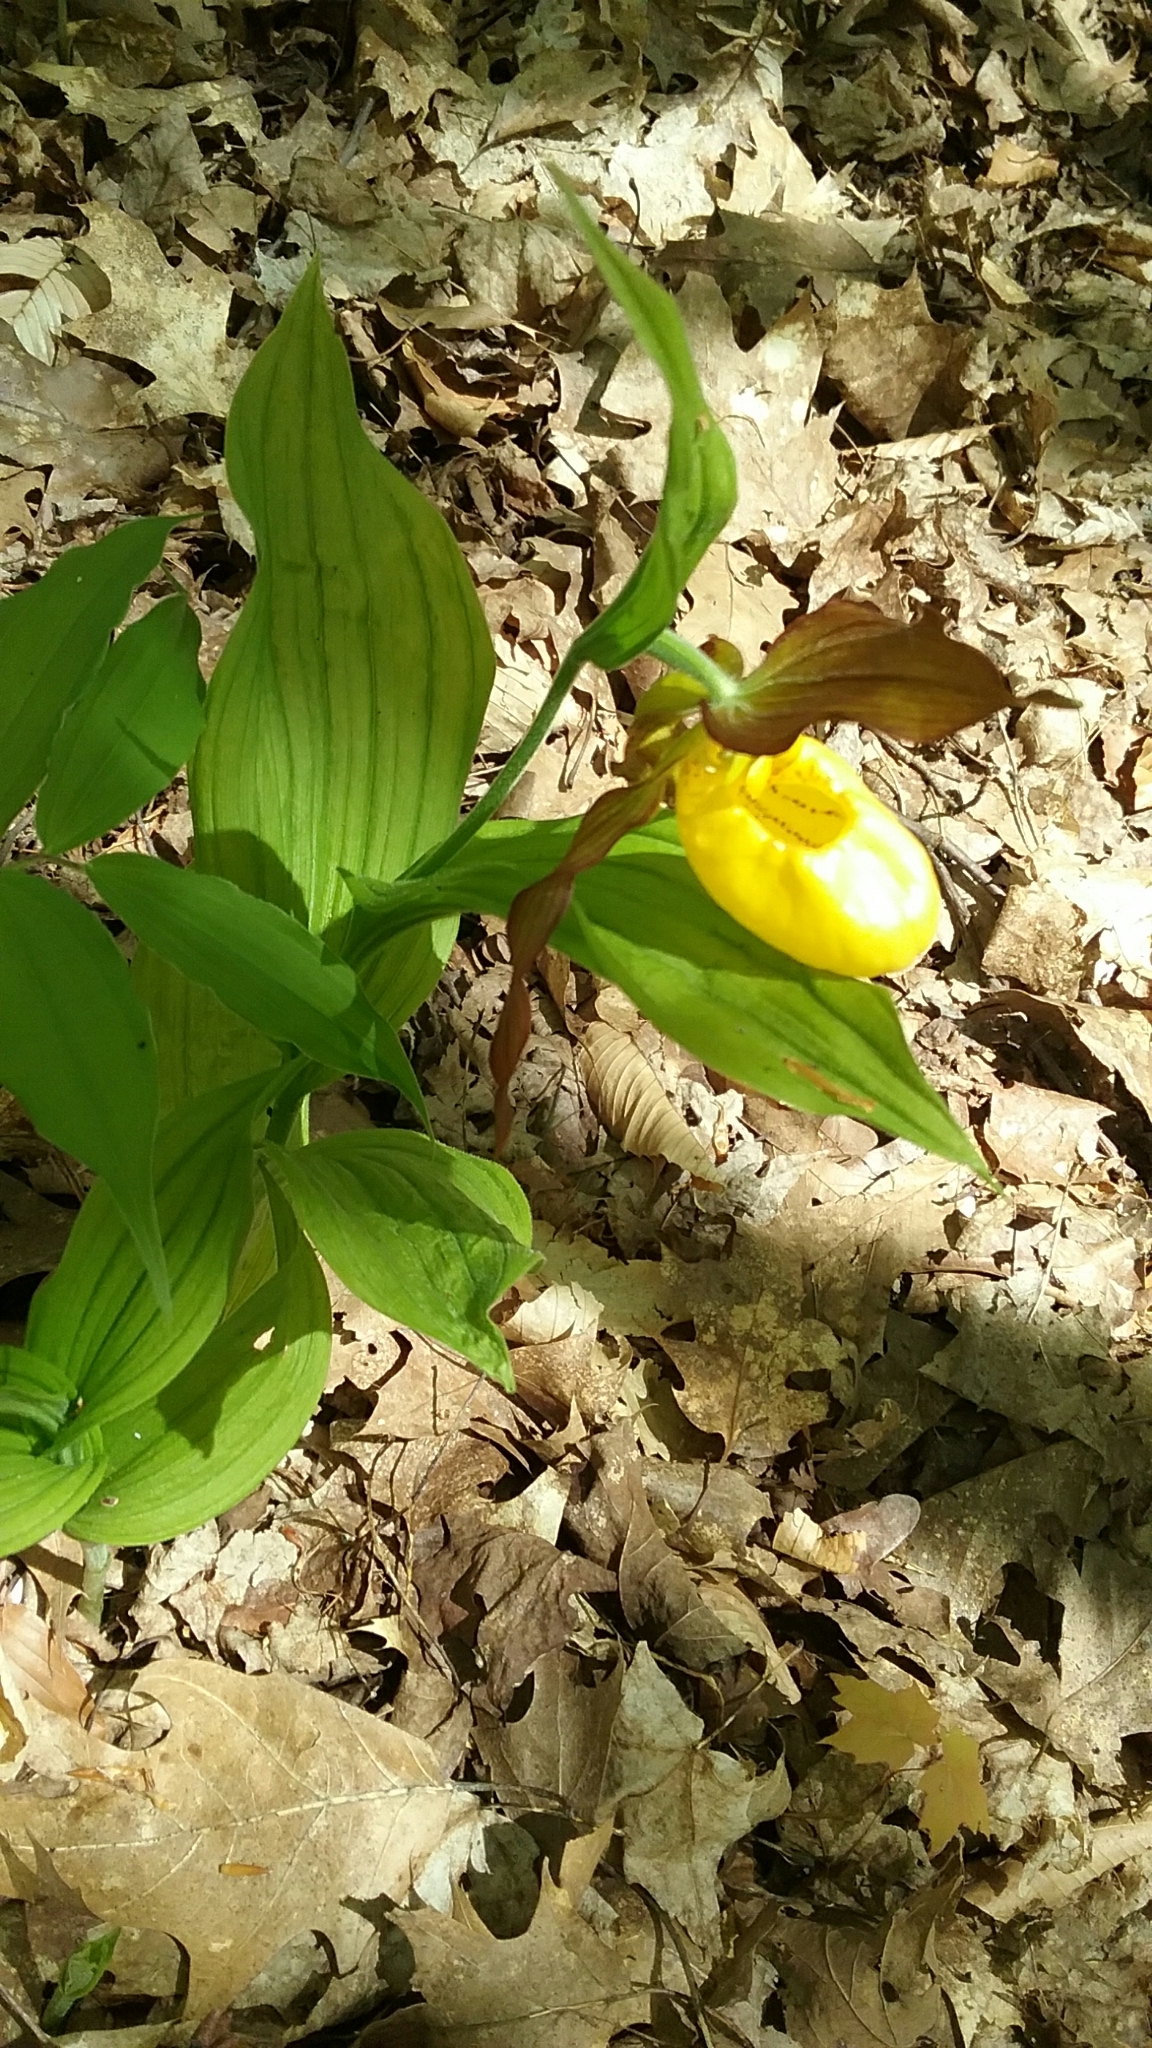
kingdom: Plantae
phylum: Tracheophyta
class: Liliopsida
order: Asparagales
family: Orchidaceae
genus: Cypripedium
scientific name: Cypripedium parviflorum
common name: American yellow lady's-slipper
